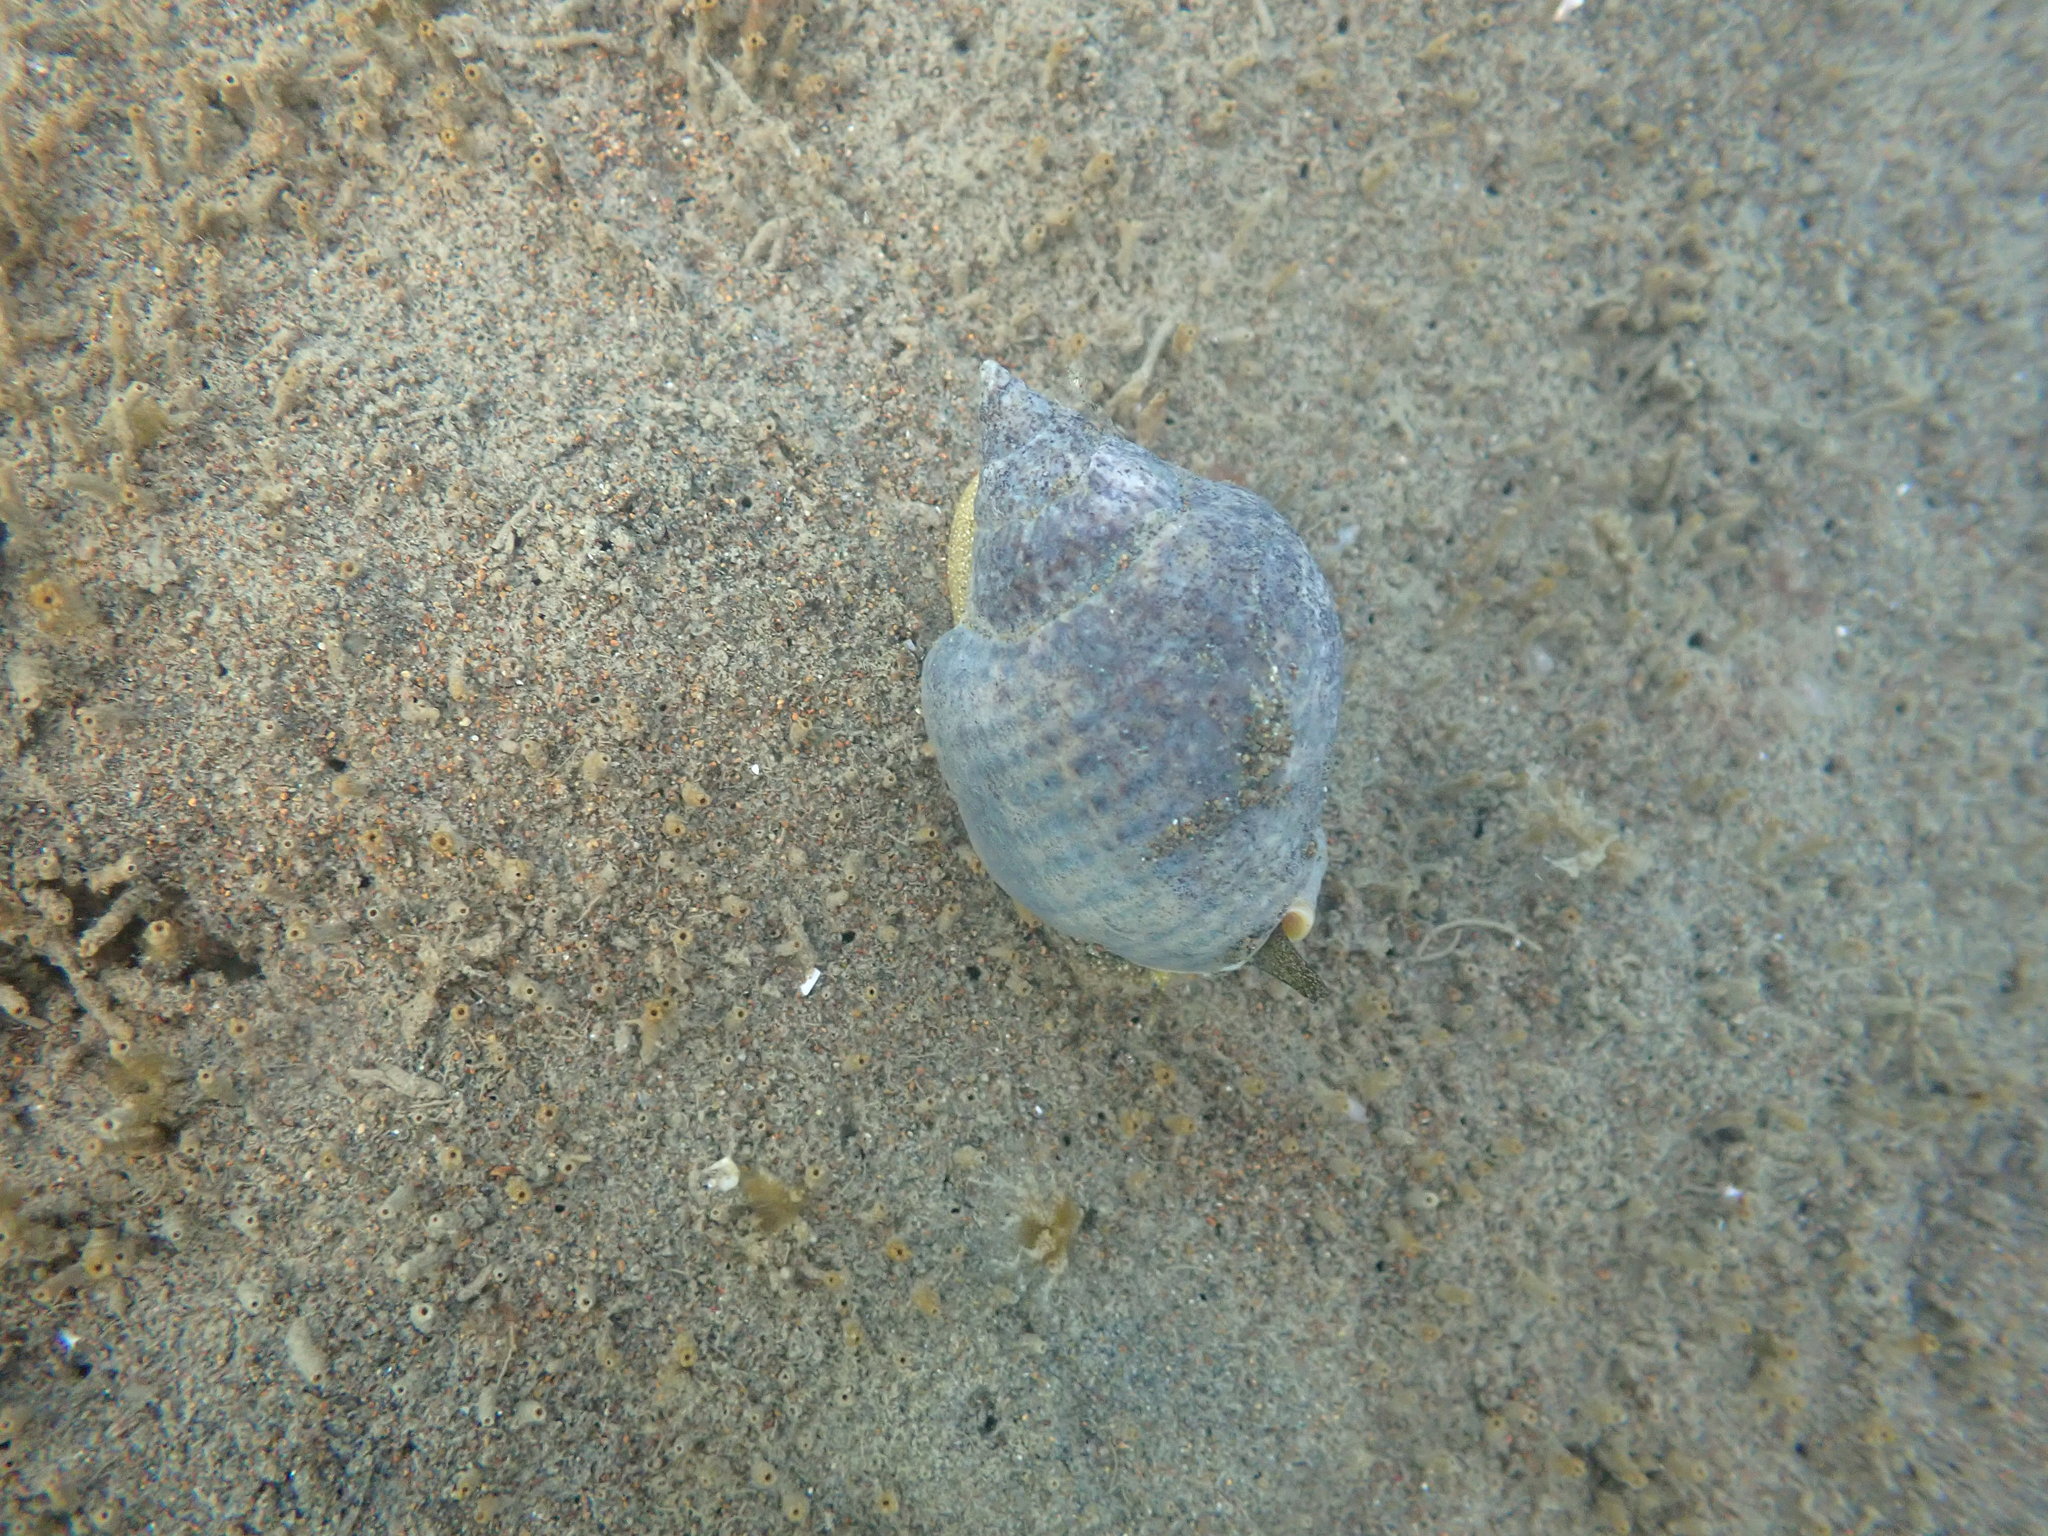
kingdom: Animalia
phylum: Mollusca
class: Gastropoda
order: Neogastropoda
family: Cominellidae
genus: Cominella
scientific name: Cominella adspersa
